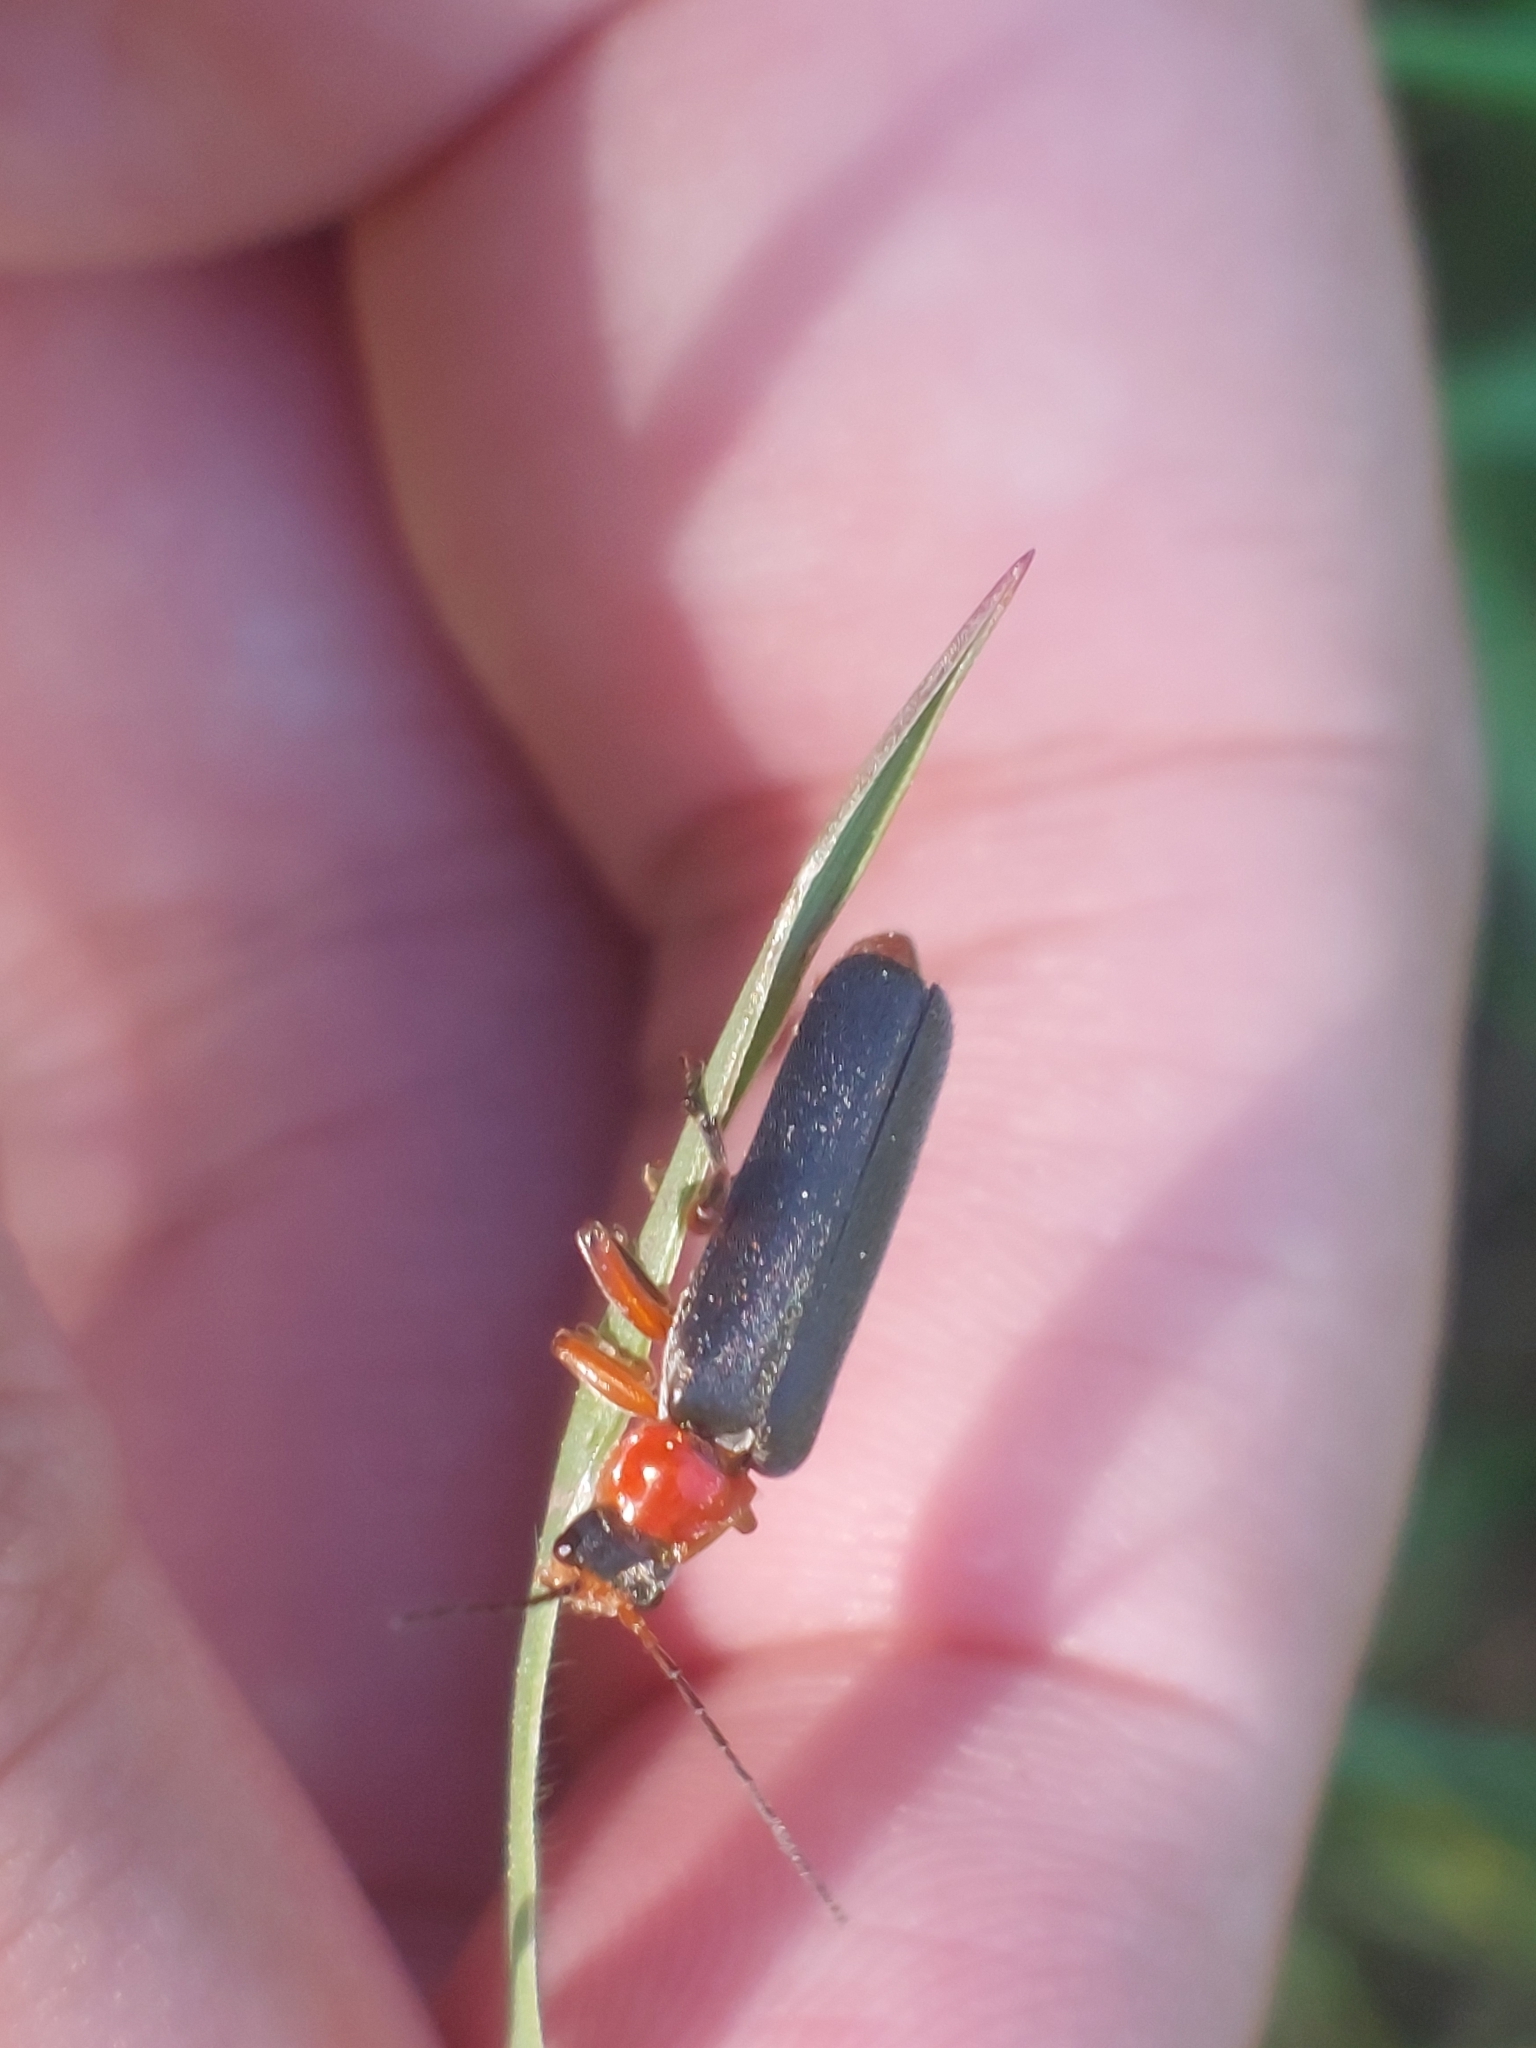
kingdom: Animalia
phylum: Arthropoda
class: Insecta
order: Coleoptera
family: Cantharidae
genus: Cantharis
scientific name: Cantharis pellucida
